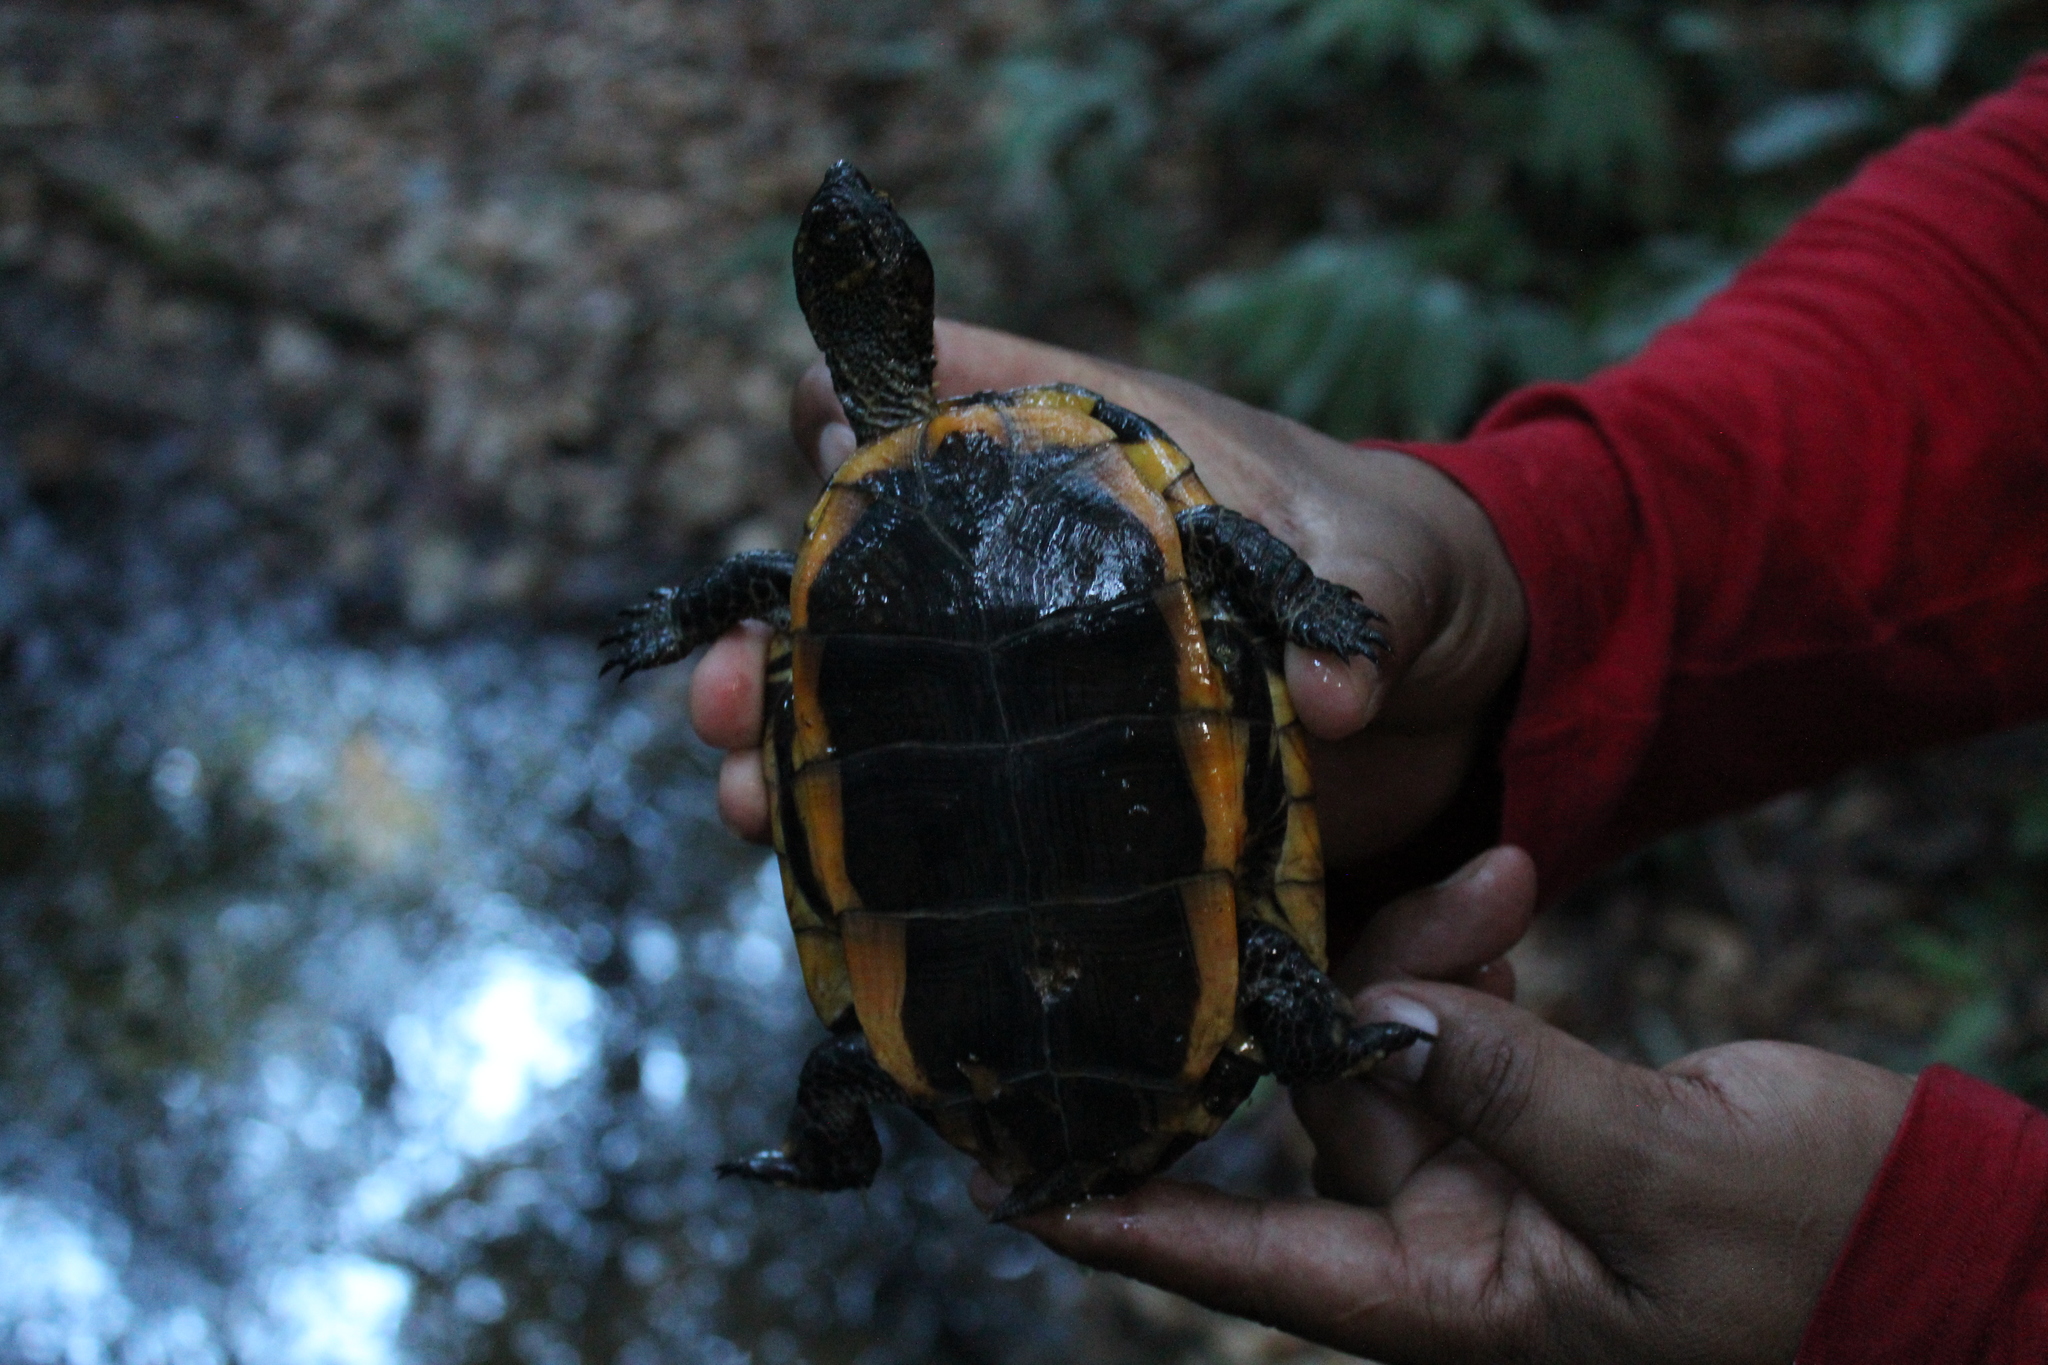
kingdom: Animalia
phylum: Chordata
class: Testudines
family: Chelidae
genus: Platemys
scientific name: Platemys platycephala
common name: Twistneck turtle
